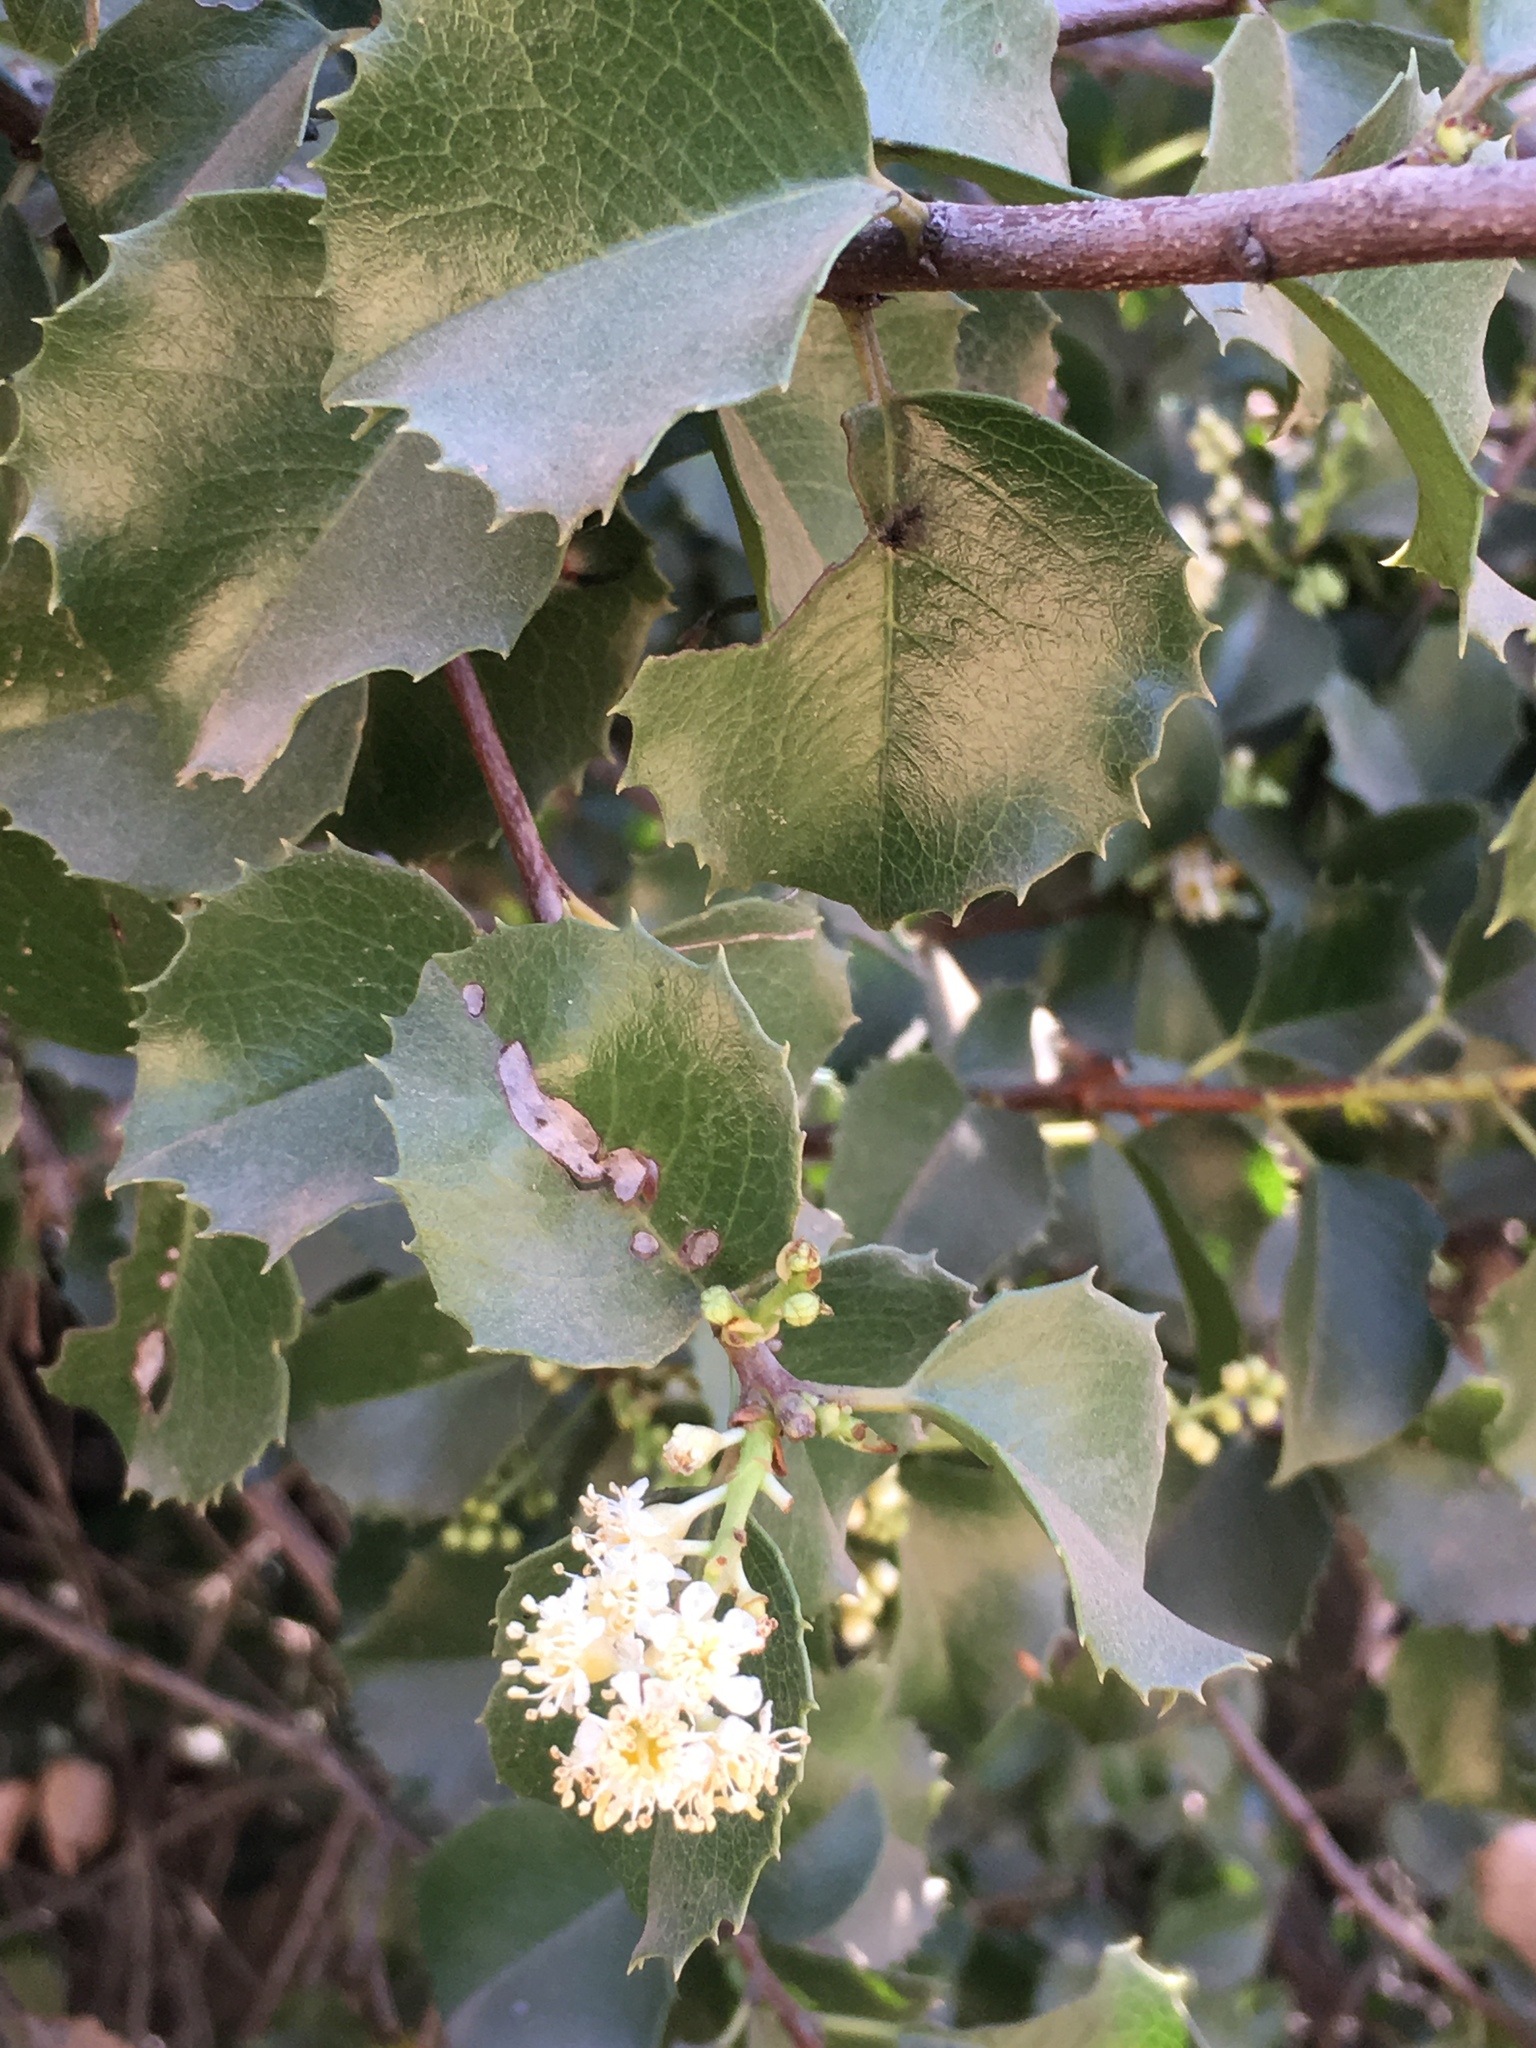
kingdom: Plantae
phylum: Tracheophyta
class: Magnoliopsida
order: Rosales
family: Rosaceae
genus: Prunus
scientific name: Prunus ilicifolia
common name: Hollyleaf cherry
